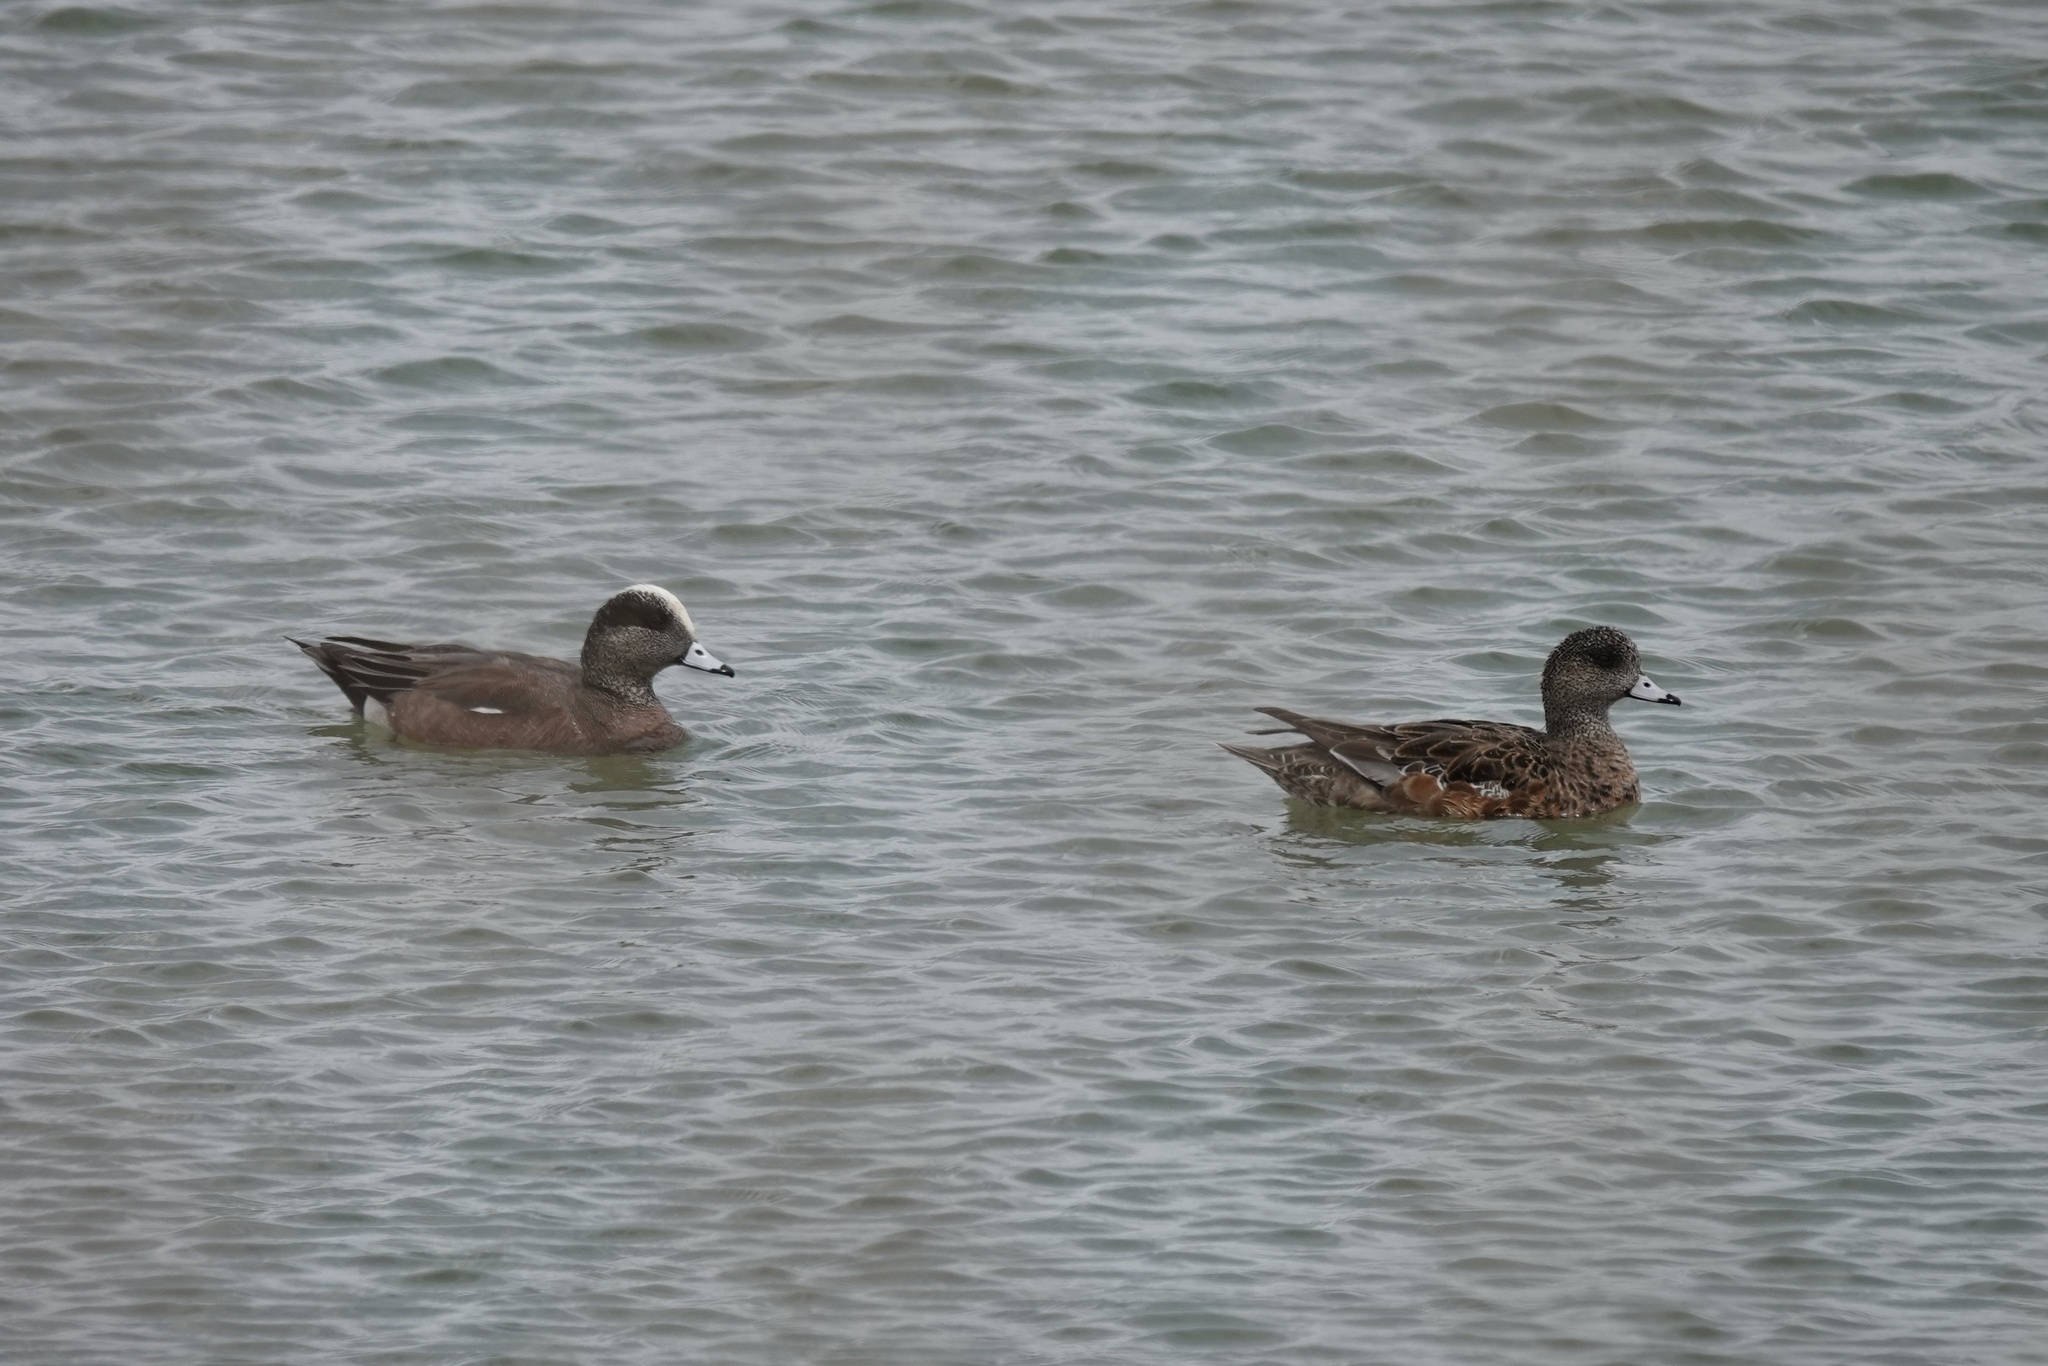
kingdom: Animalia
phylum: Chordata
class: Aves
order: Anseriformes
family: Anatidae
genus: Mareca
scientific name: Mareca americana
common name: American wigeon
